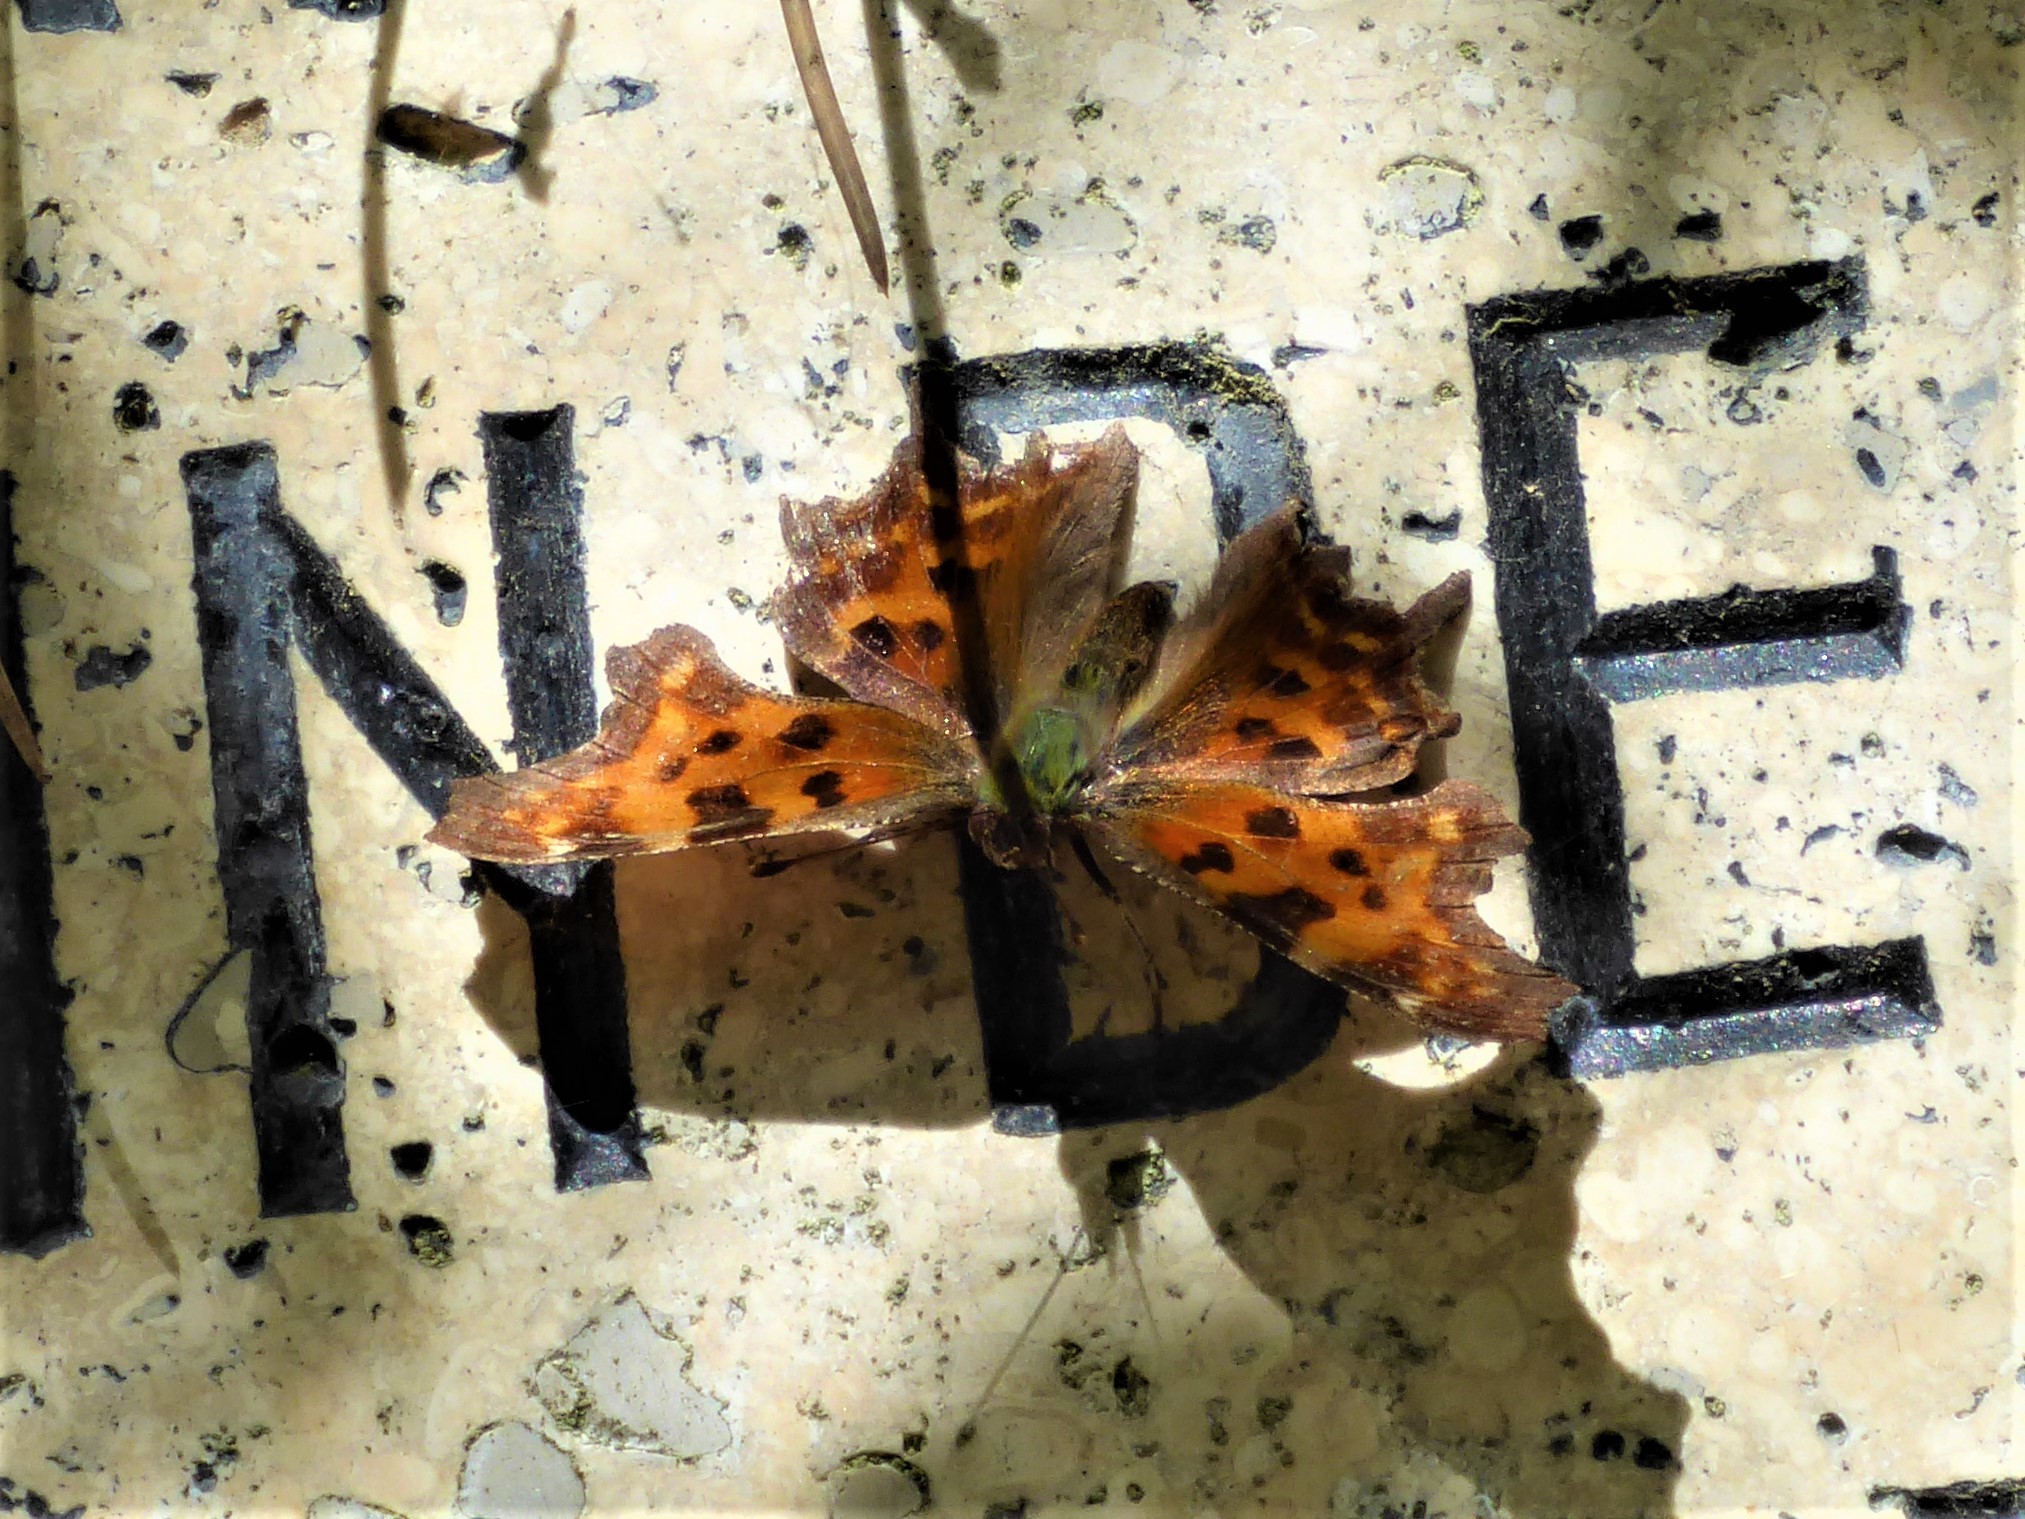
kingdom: Animalia
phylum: Arthropoda
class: Insecta
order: Lepidoptera
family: Nymphalidae
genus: Polygonia
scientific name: Polygonia c-album
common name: Comma
